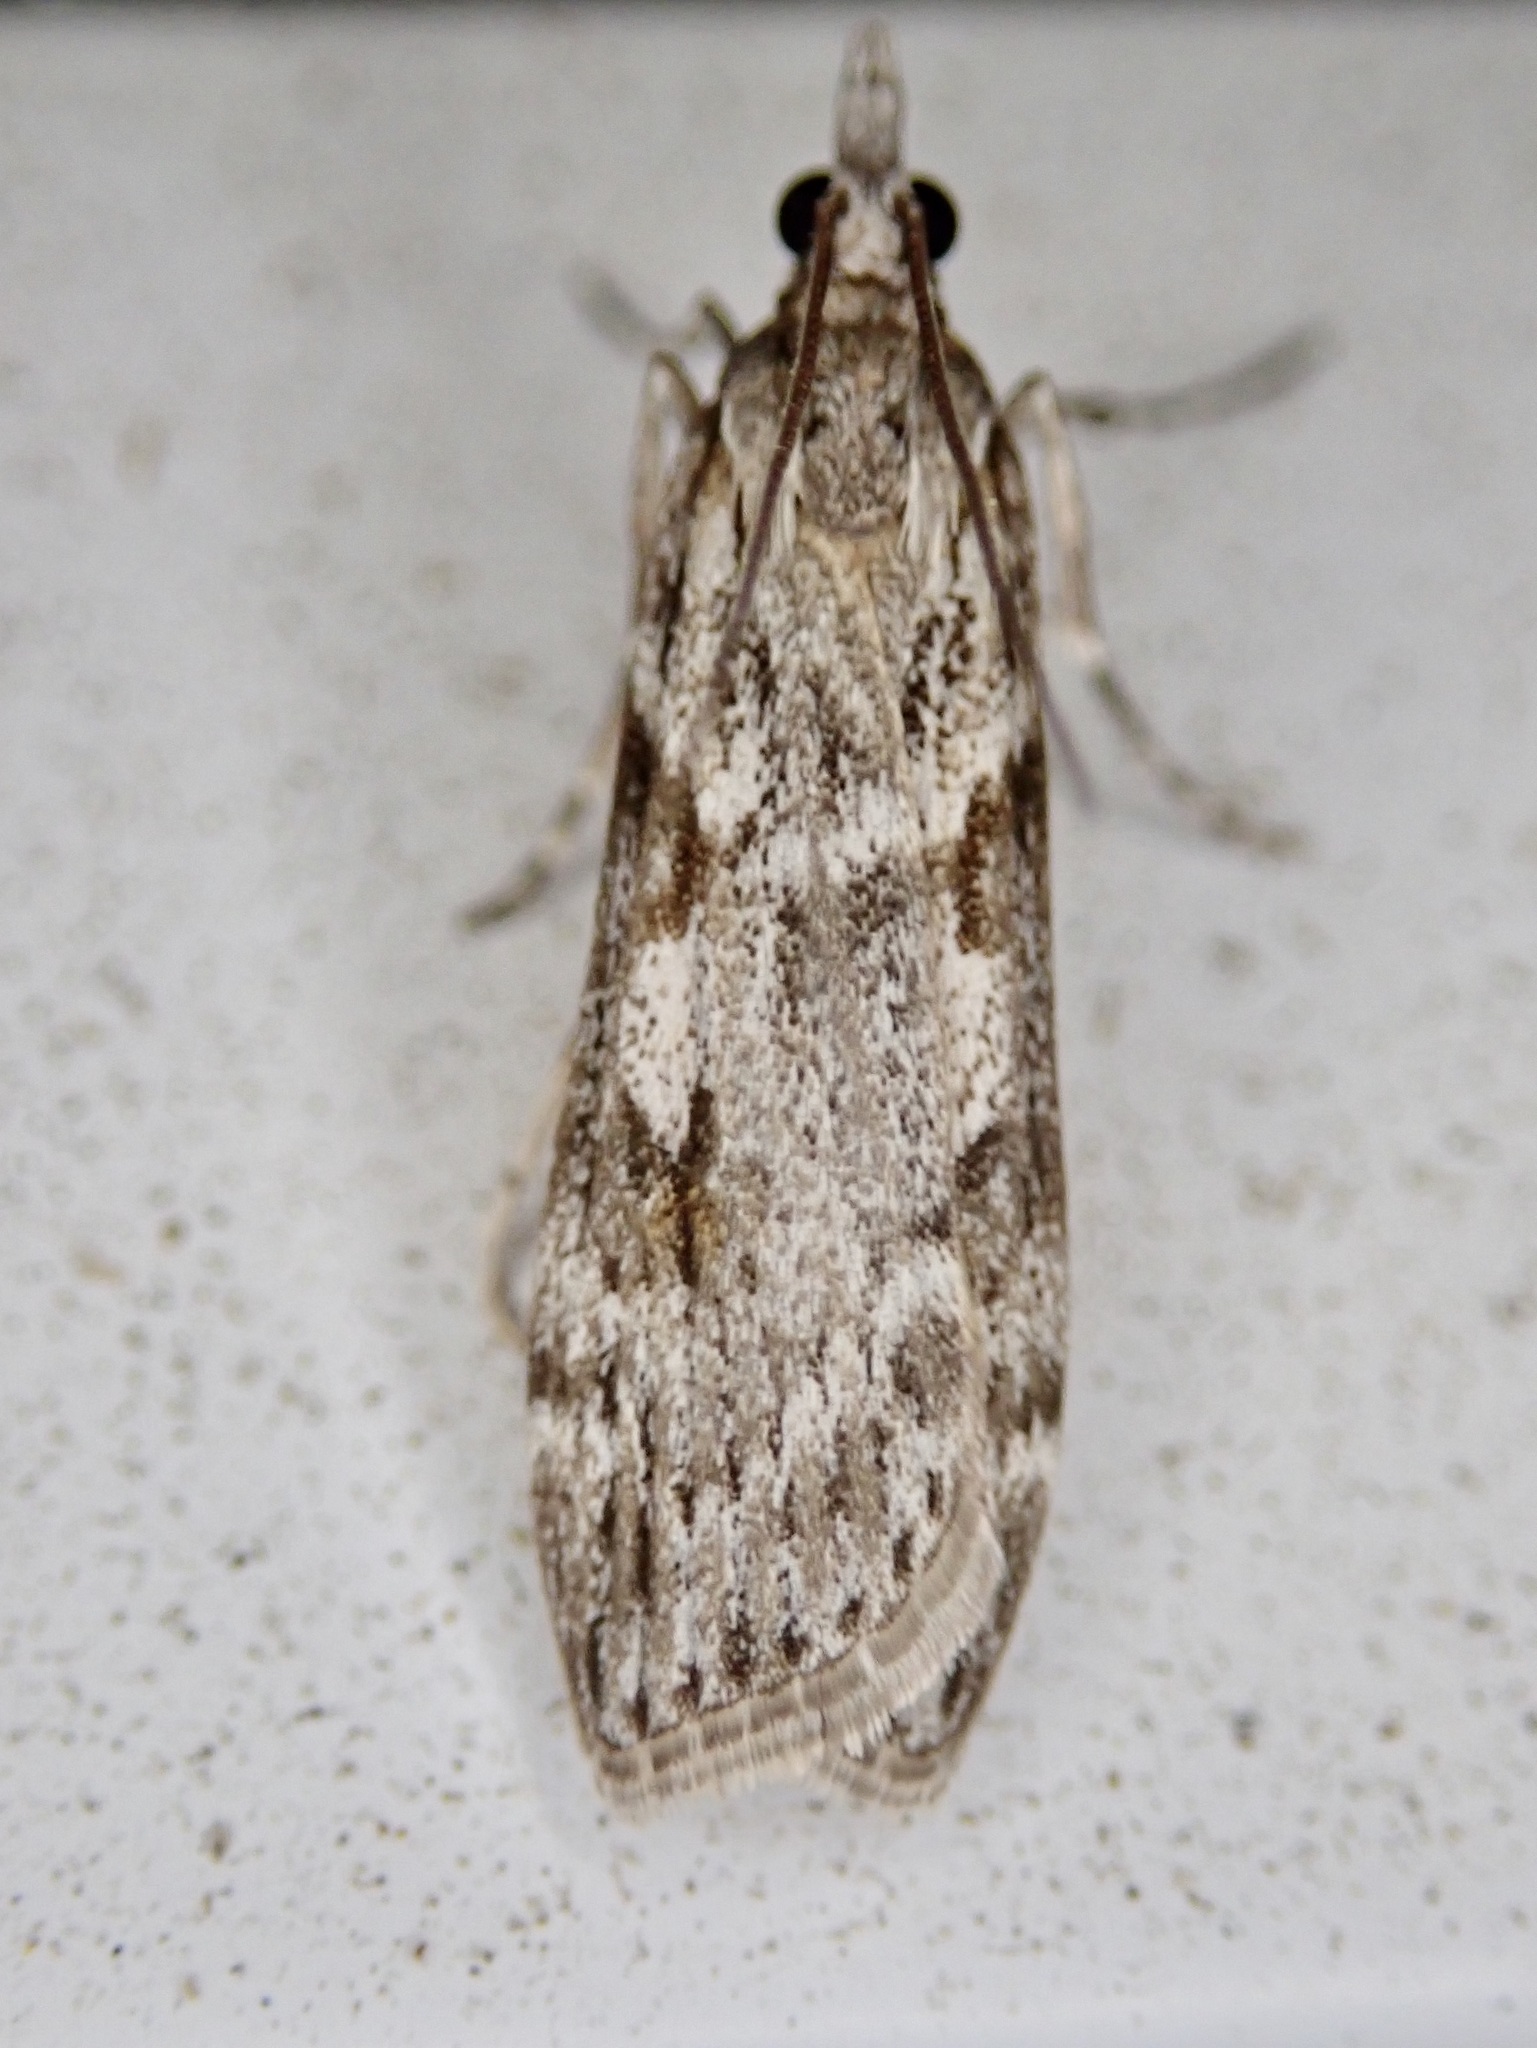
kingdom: Animalia
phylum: Arthropoda
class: Insecta
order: Lepidoptera
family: Crambidae
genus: Scoparia
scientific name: Scoparia halopis
